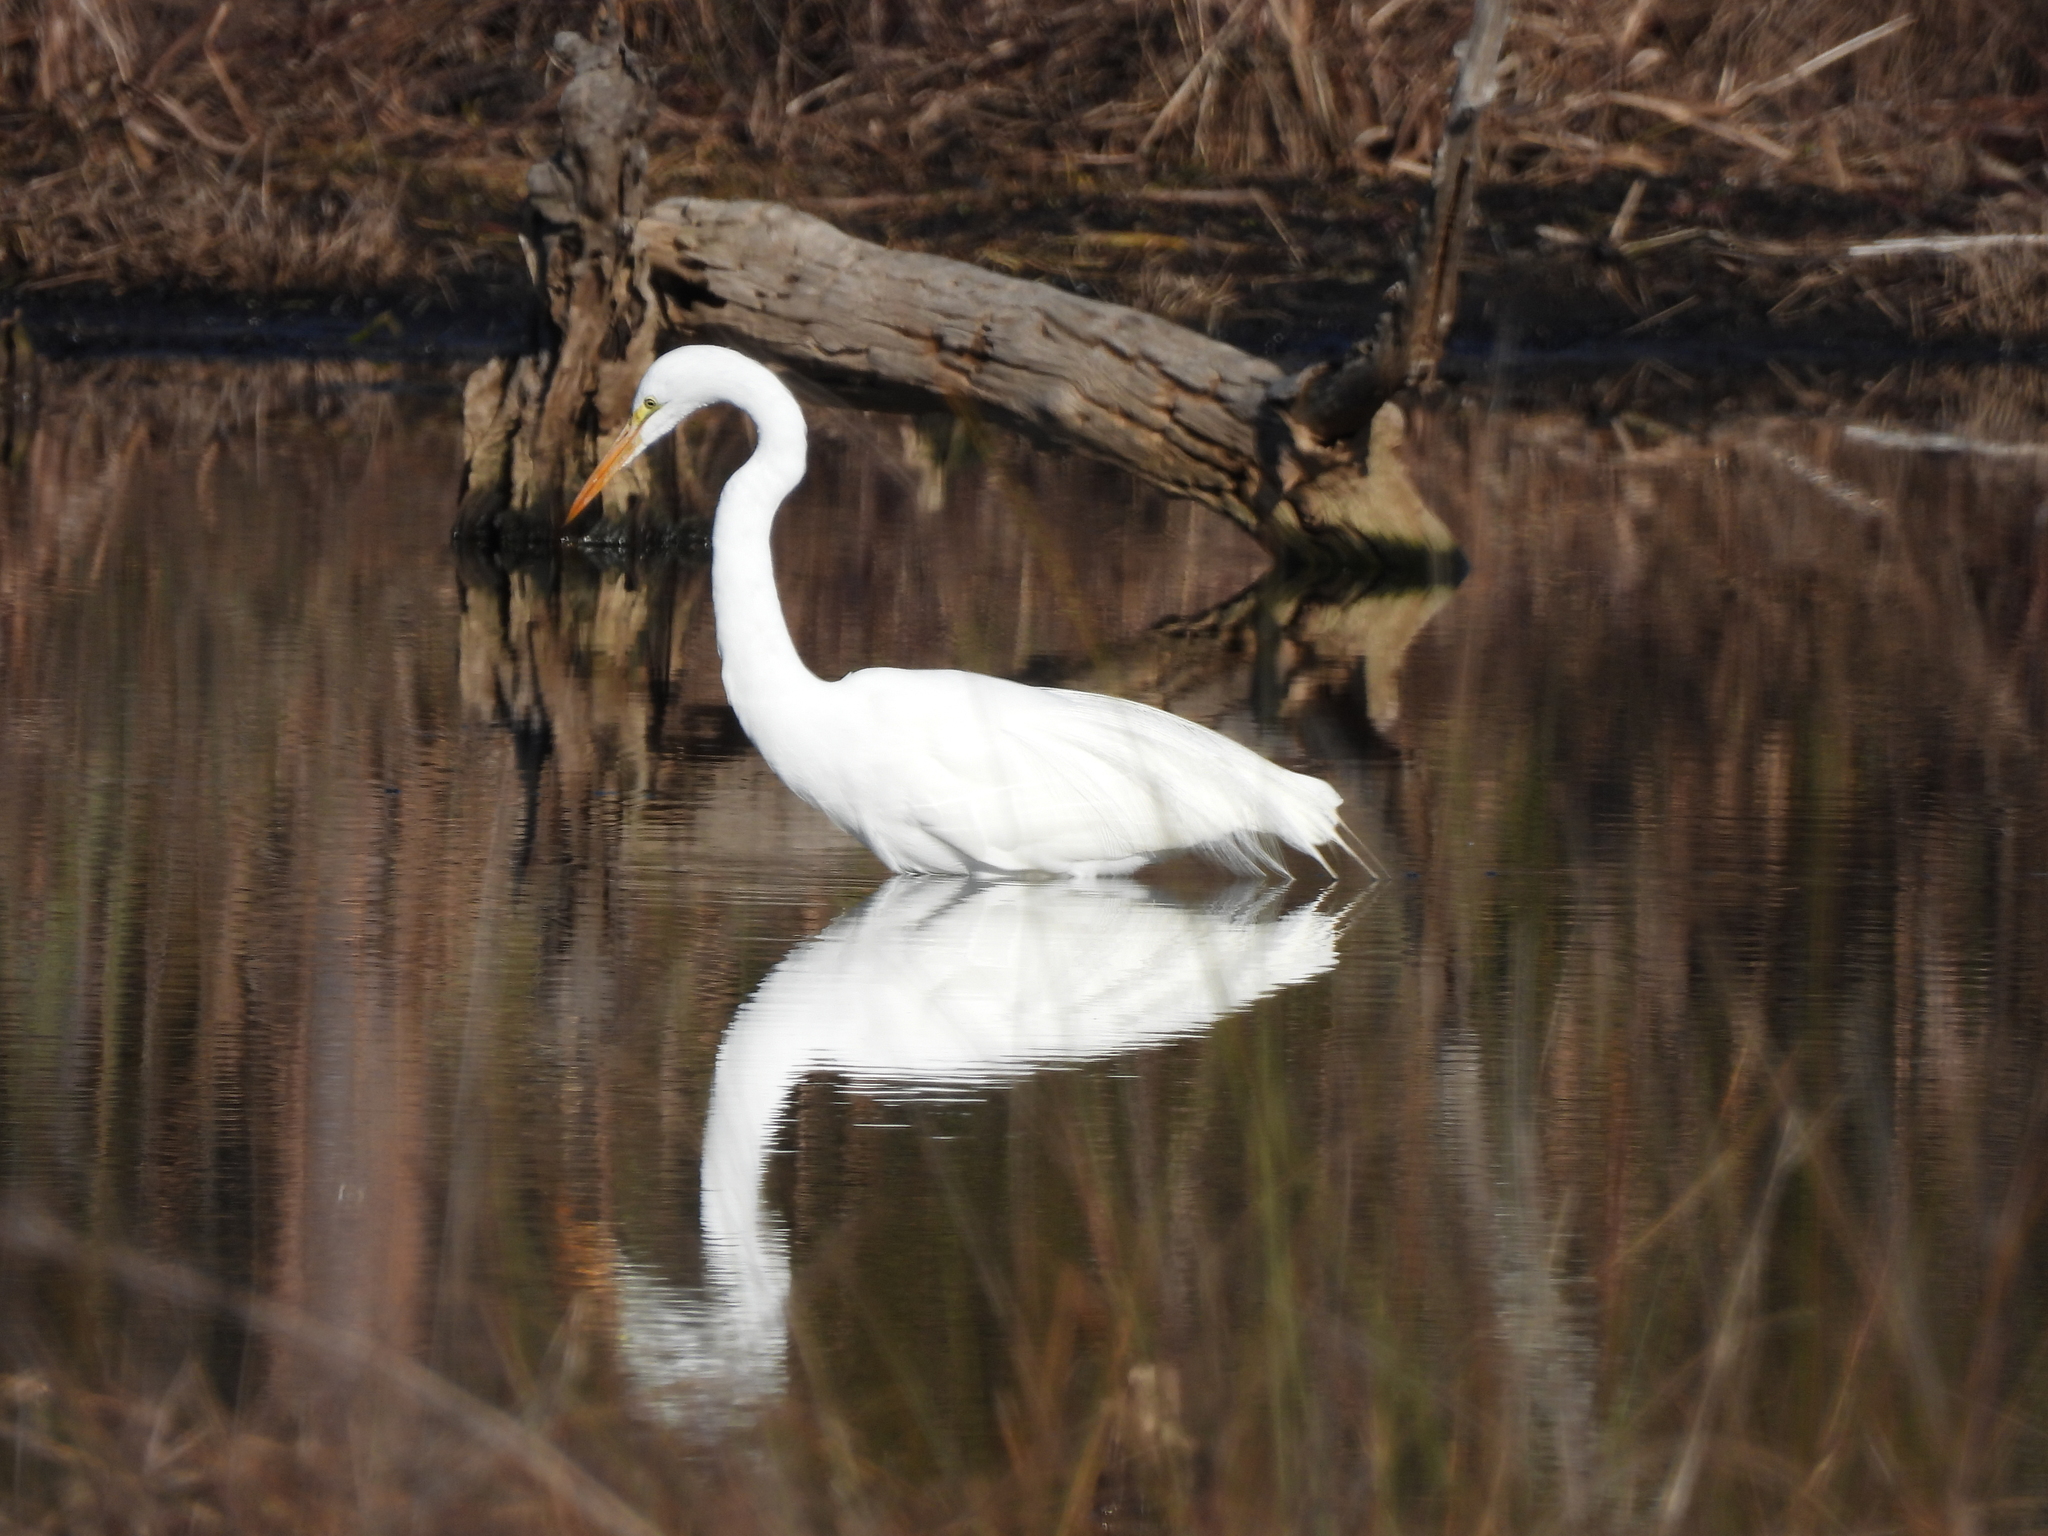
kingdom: Animalia
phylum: Chordata
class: Aves
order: Pelecaniformes
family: Ardeidae
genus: Ardea
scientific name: Ardea alba
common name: Great egret
